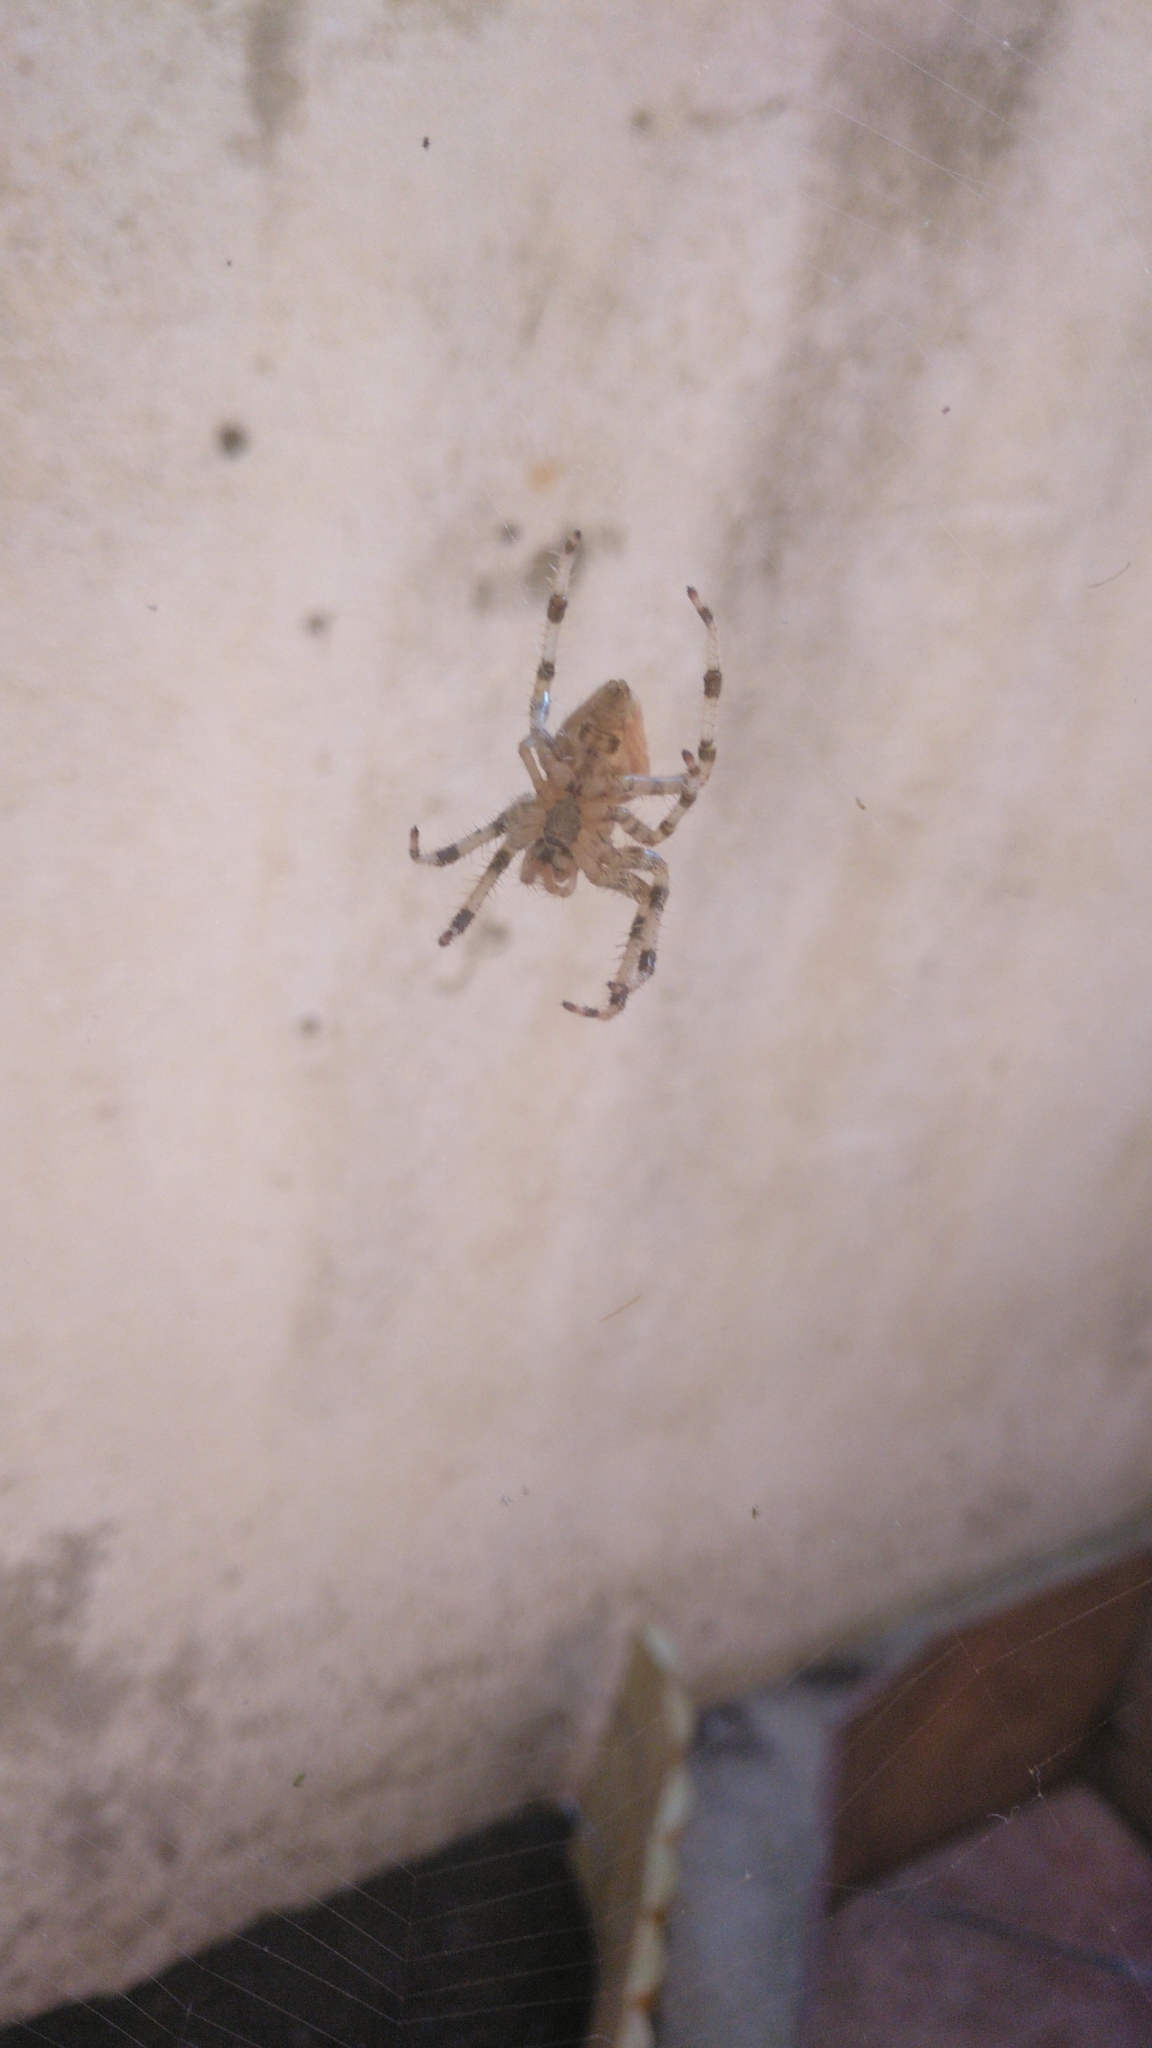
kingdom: Animalia
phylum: Arthropoda
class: Arachnida
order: Araneae
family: Araneidae
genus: Araneus
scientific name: Araneus pallidus
